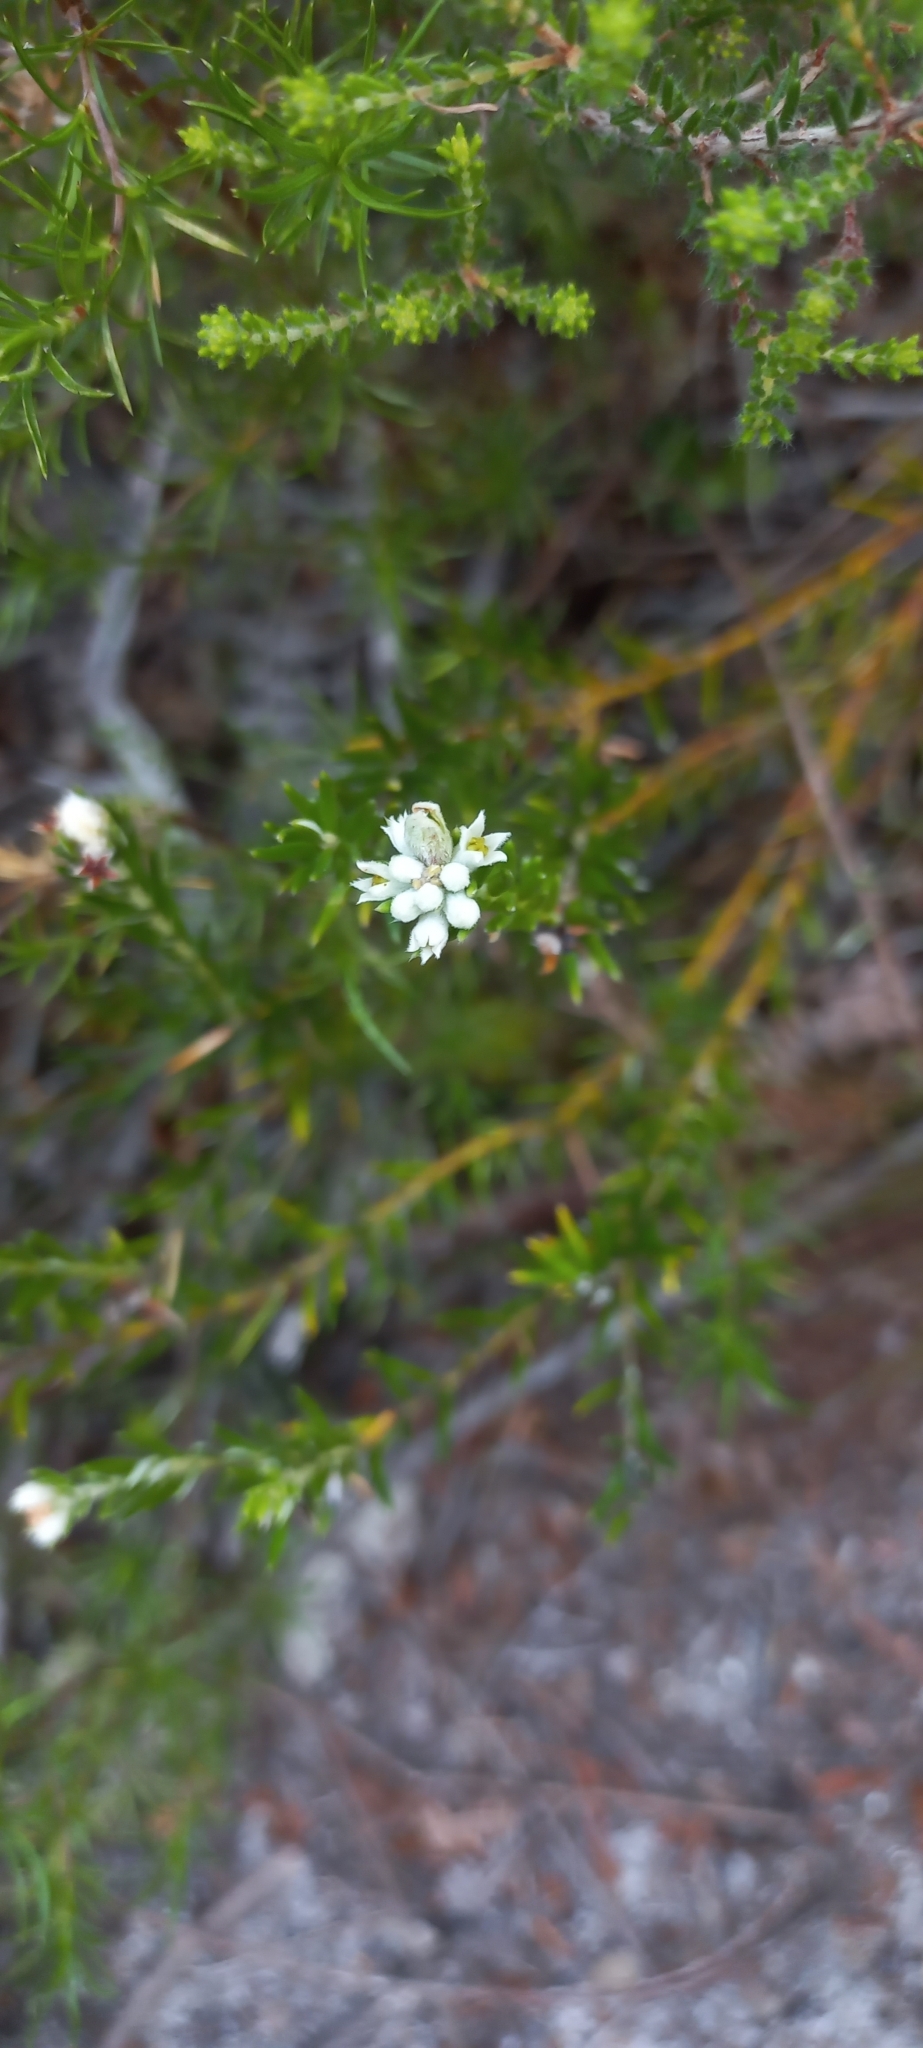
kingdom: Plantae
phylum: Tracheophyta
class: Magnoliopsida
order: Rosales
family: Rhamnaceae
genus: Phylica
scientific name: Phylica imberbis
